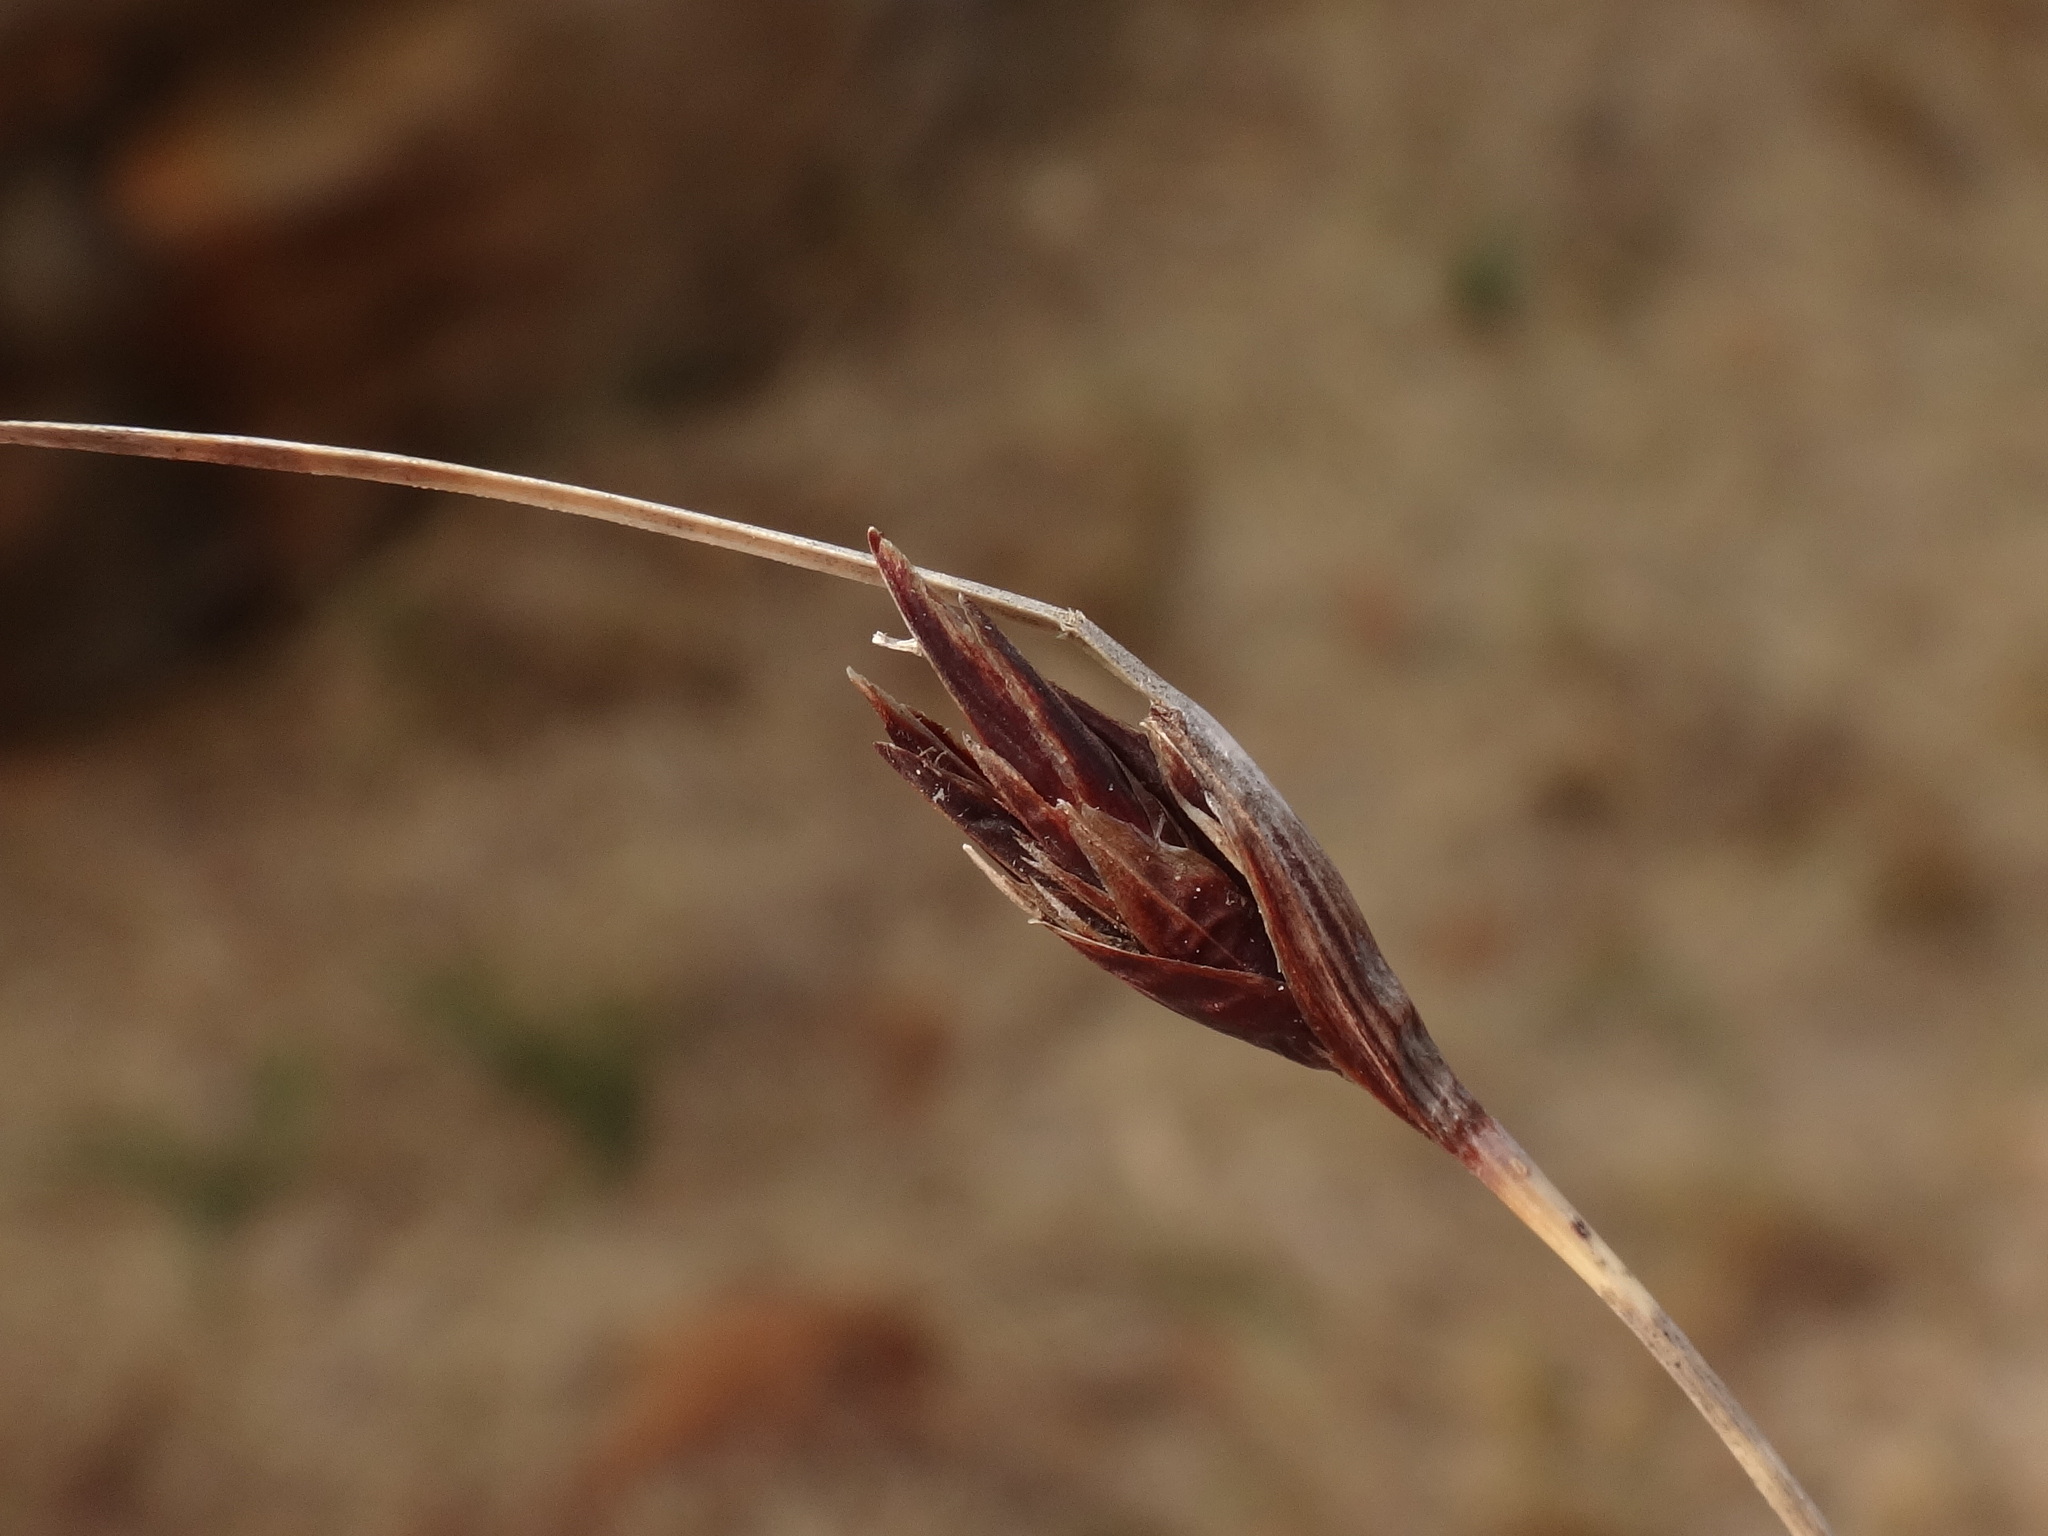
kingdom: Plantae
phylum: Tracheophyta
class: Liliopsida
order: Poales
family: Cyperaceae
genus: Schoenus
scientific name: Schoenus nigricans
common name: Black bog-rush
